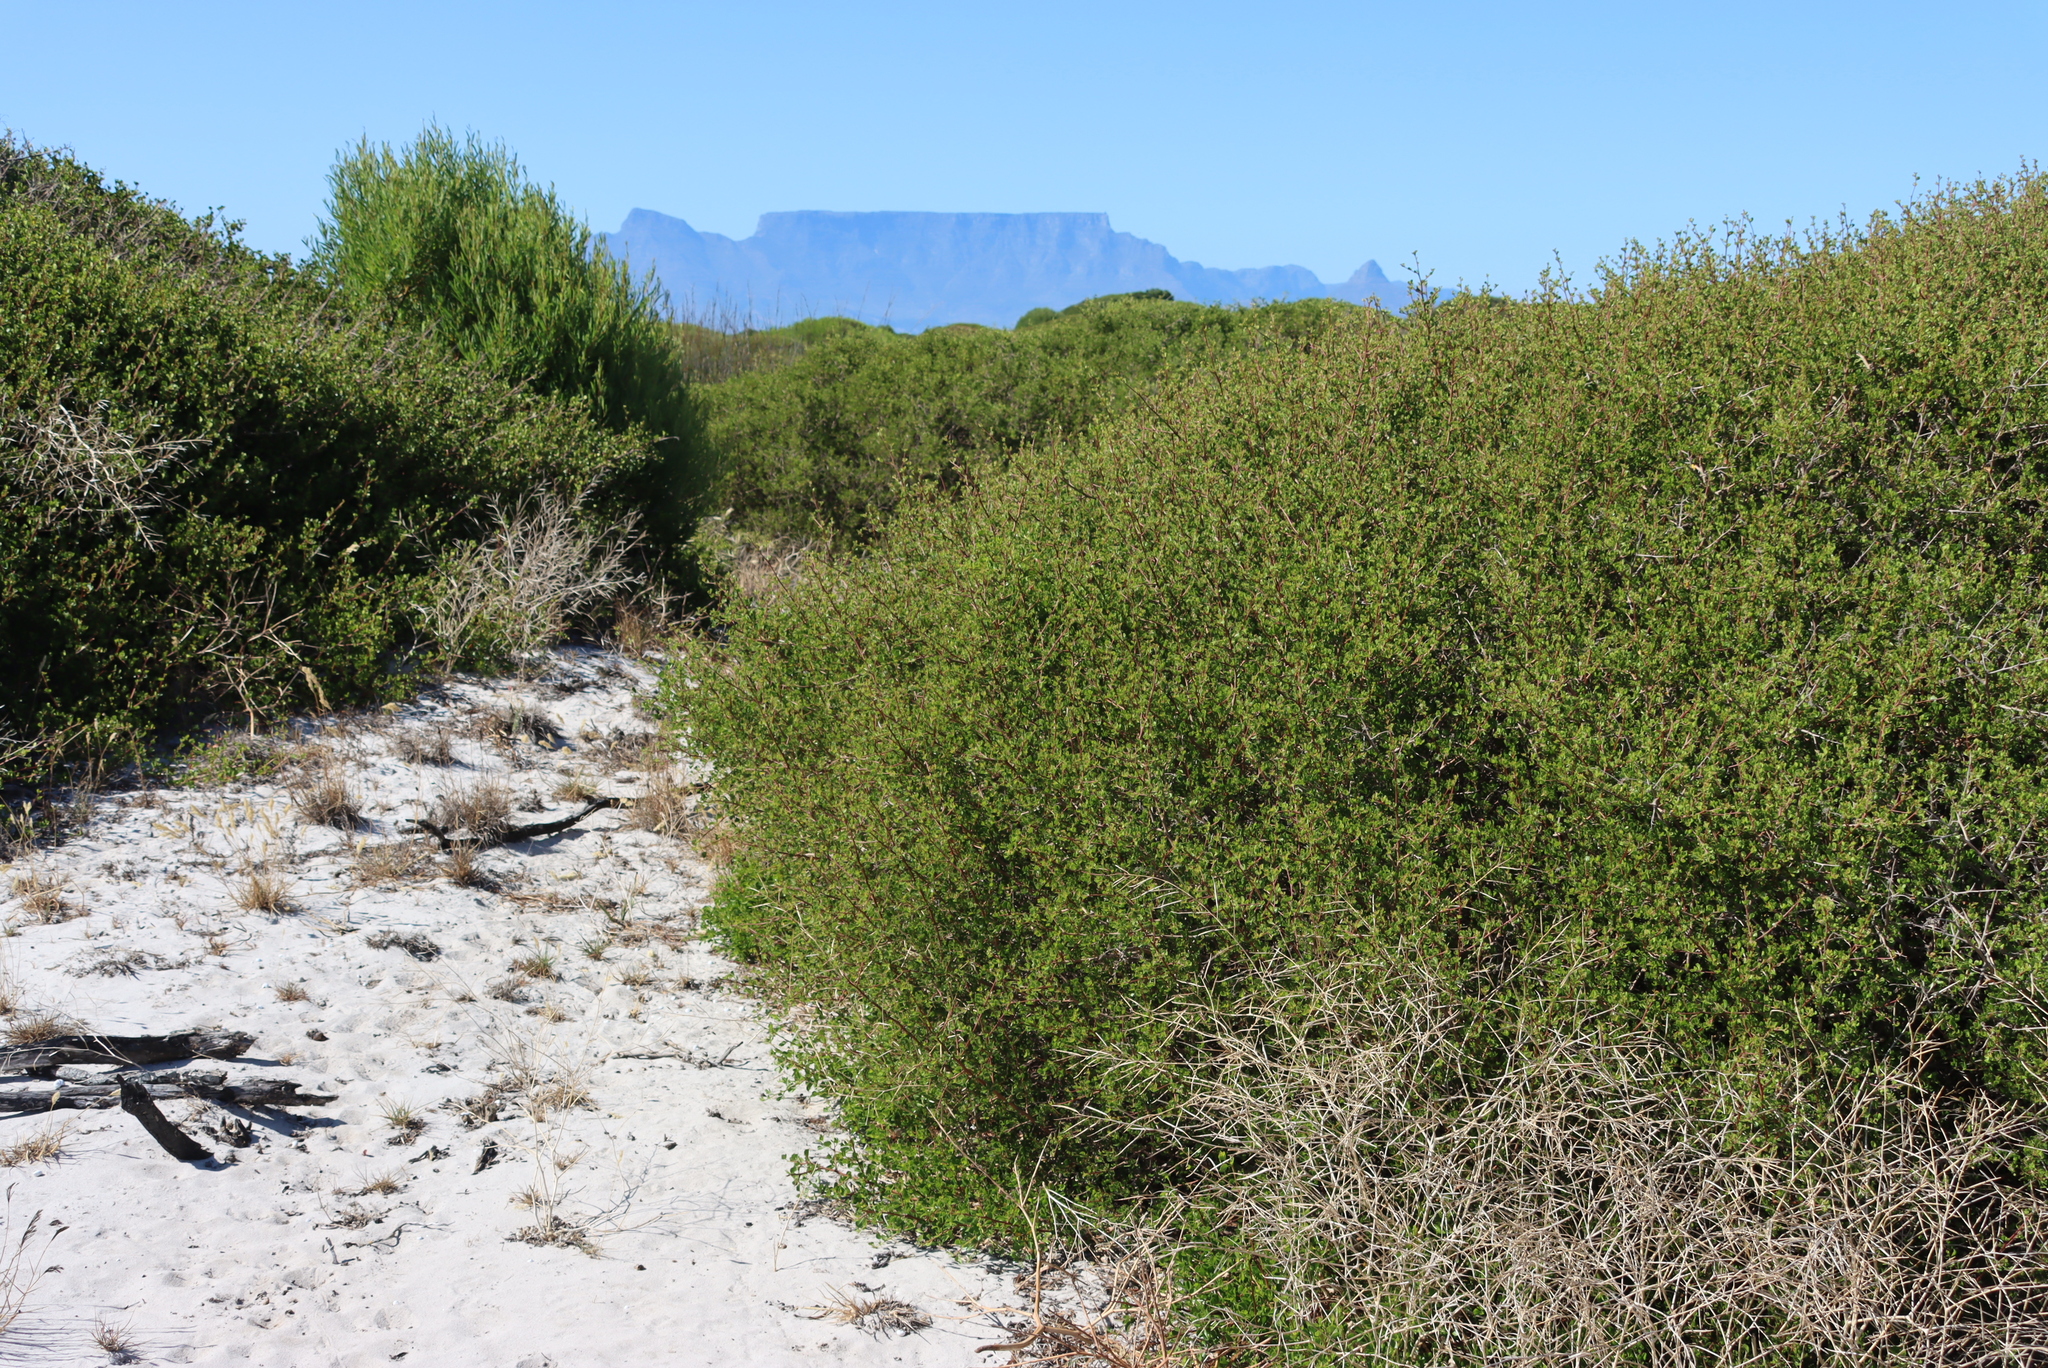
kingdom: Plantae
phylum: Tracheophyta
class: Magnoliopsida
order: Sapindales
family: Anacardiaceae
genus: Searsia
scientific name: Searsia glauca
